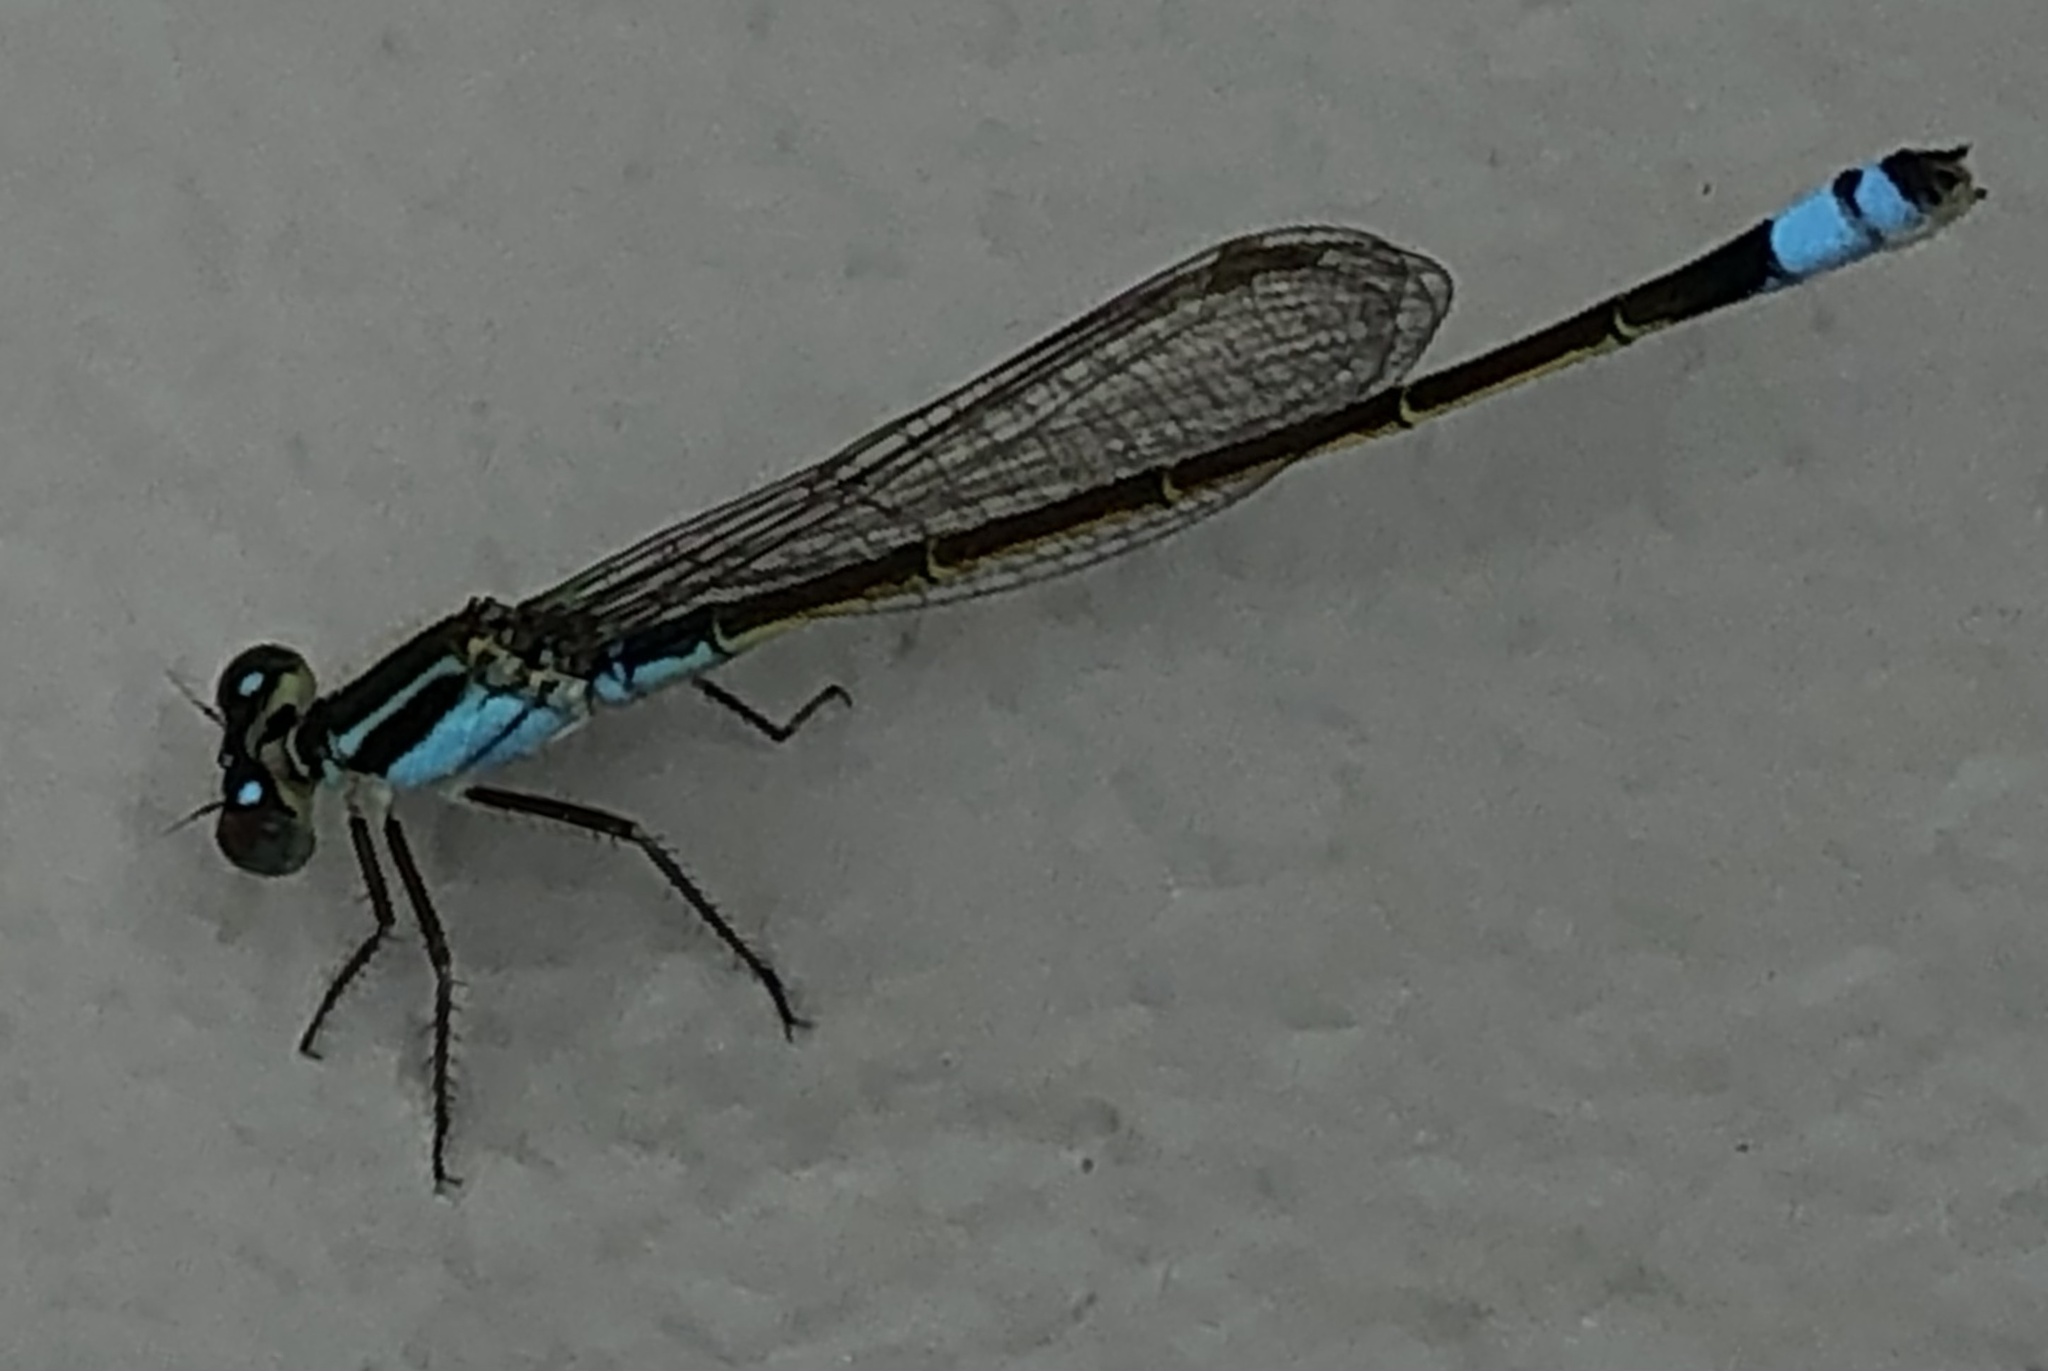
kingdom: Animalia
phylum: Arthropoda
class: Insecta
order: Odonata
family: Coenagrionidae
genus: Ischnura
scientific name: Ischnura ramburii
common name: Rambur's forktail
